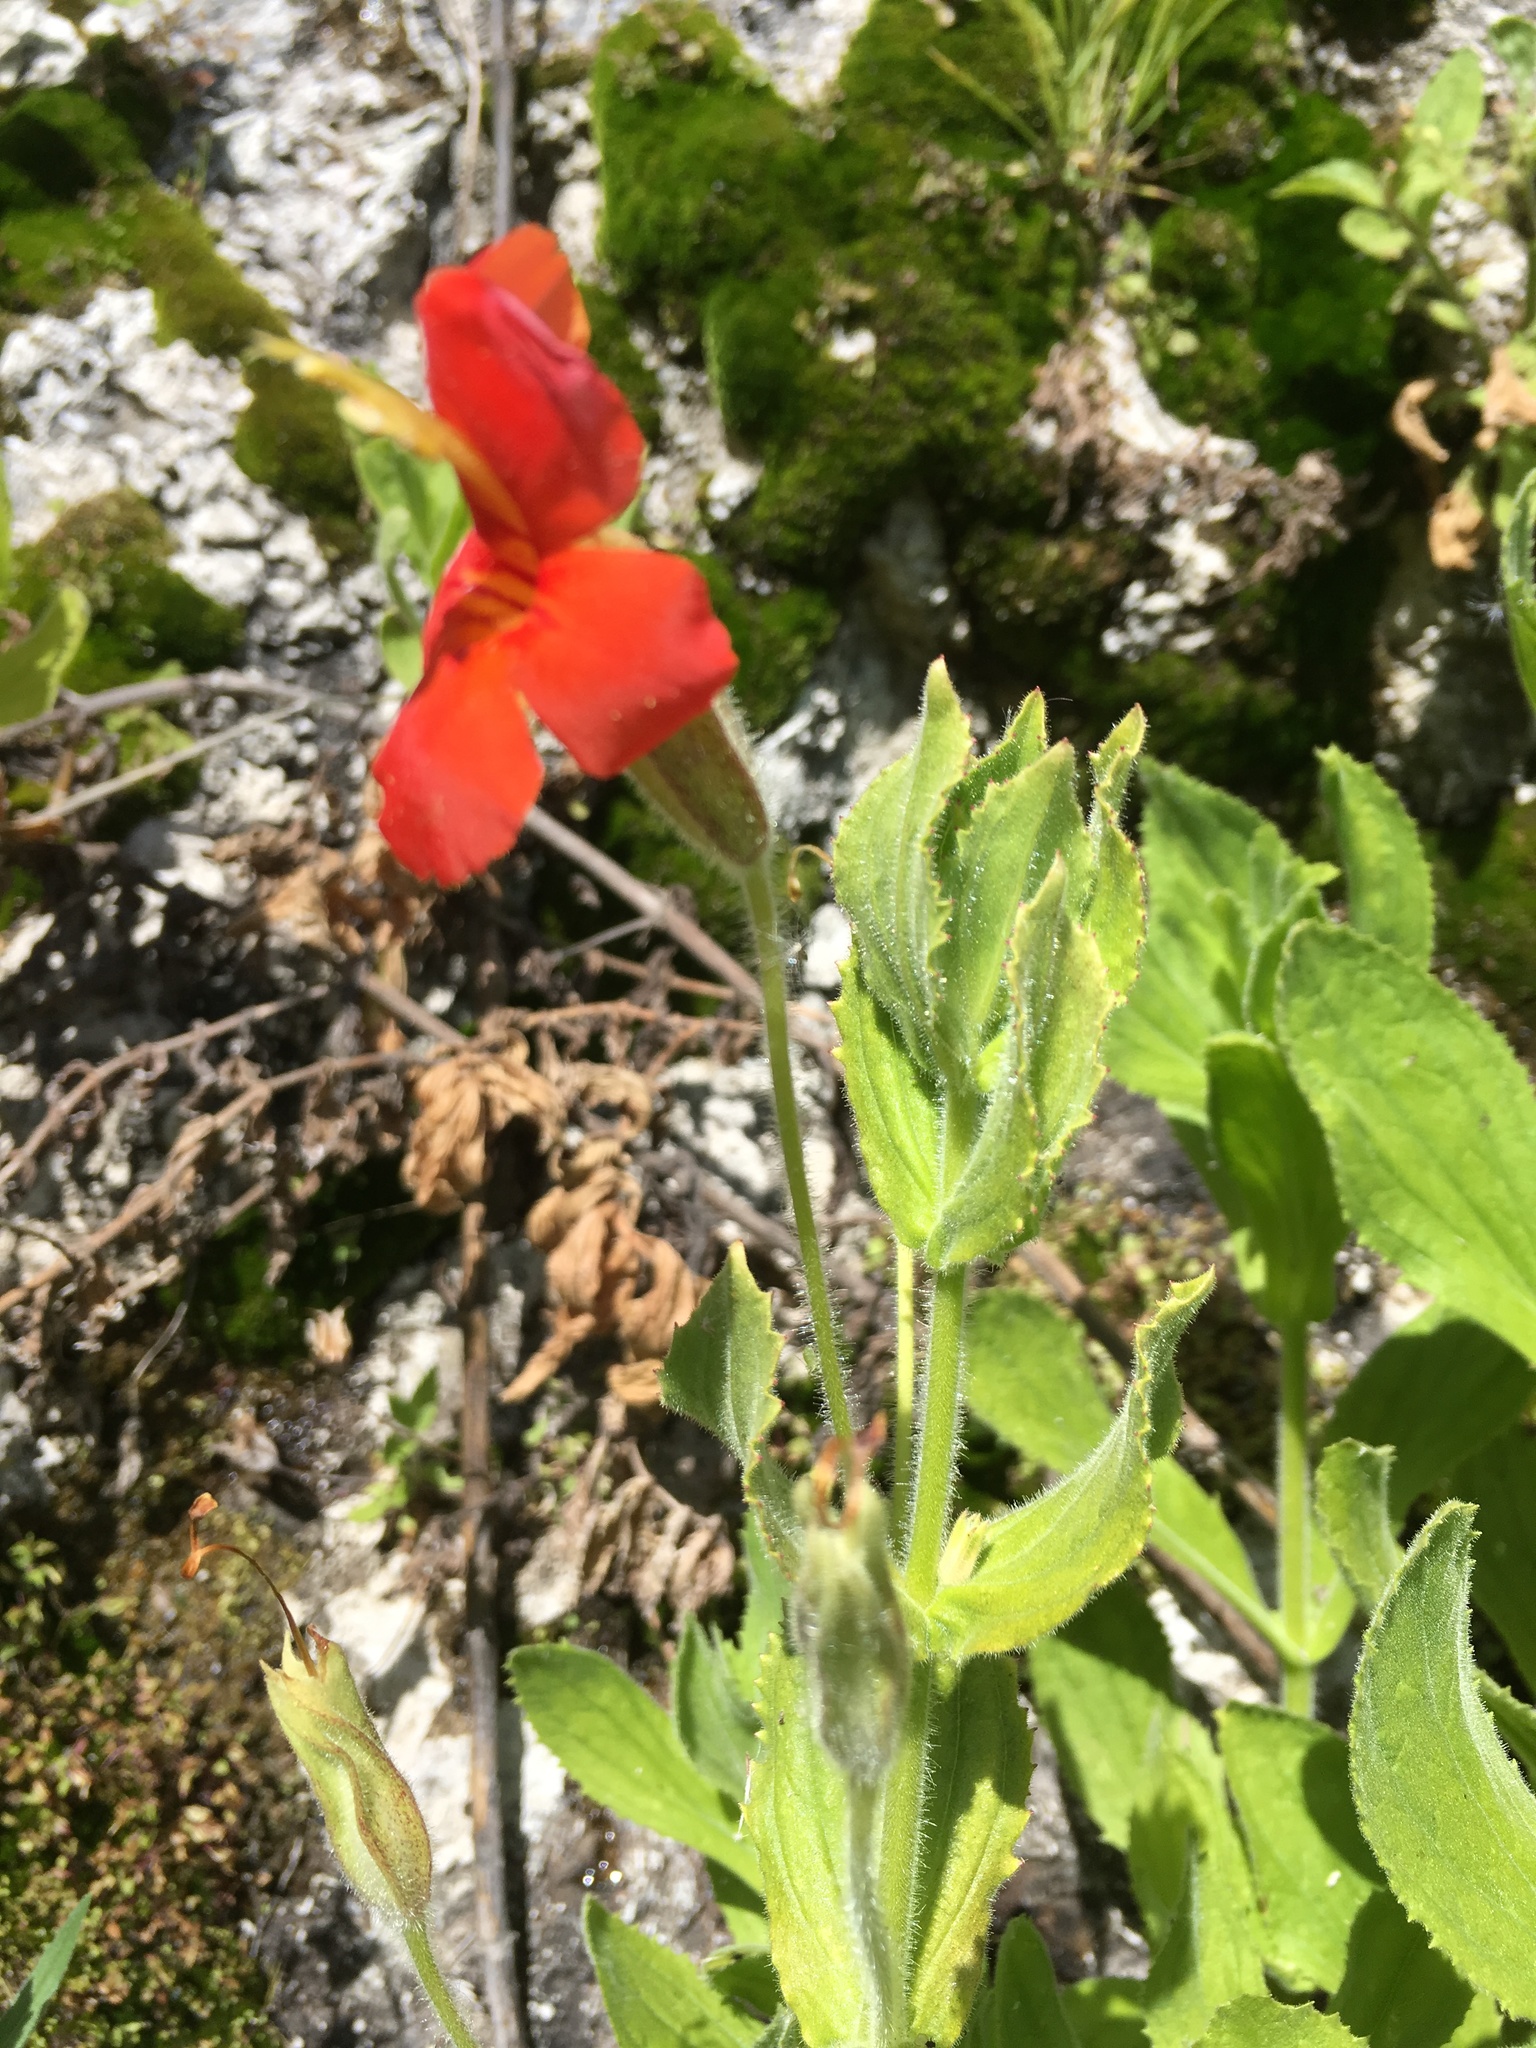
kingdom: Plantae
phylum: Tracheophyta
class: Magnoliopsida
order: Lamiales
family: Phrymaceae
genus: Erythranthe
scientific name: Erythranthe cardinalis
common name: Scarlet monkey-flower
